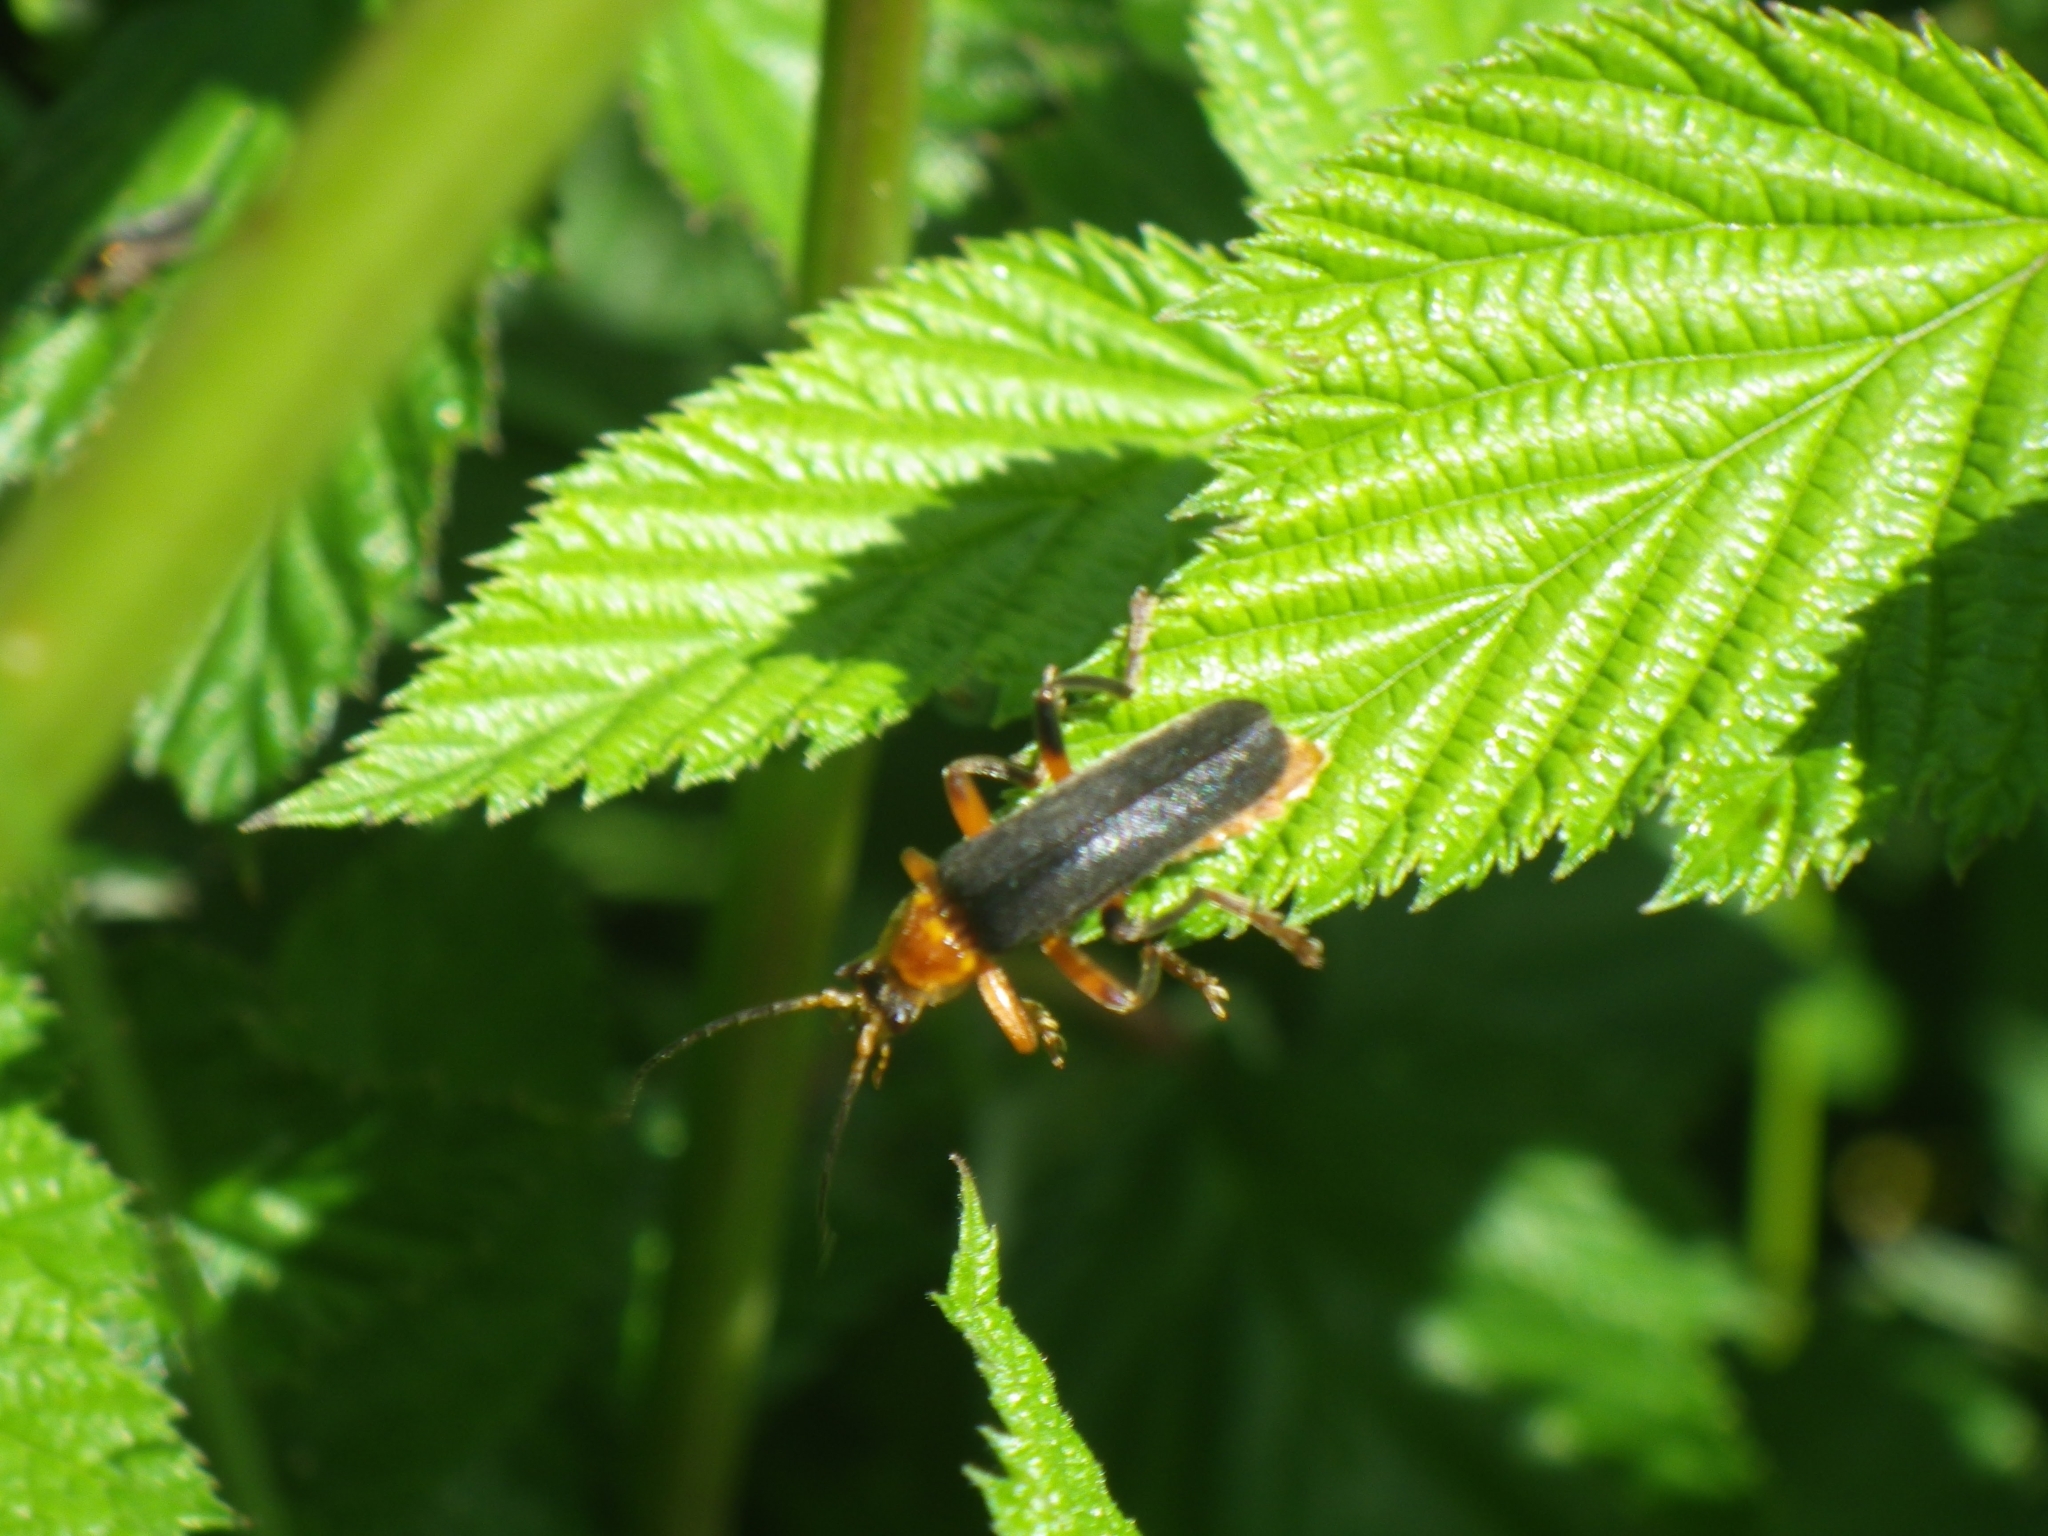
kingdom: Animalia
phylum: Arthropoda
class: Insecta
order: Coleoptera
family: Cantharidae
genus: Cantharis
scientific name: Cantharis livida
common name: Livid soldier beetle
